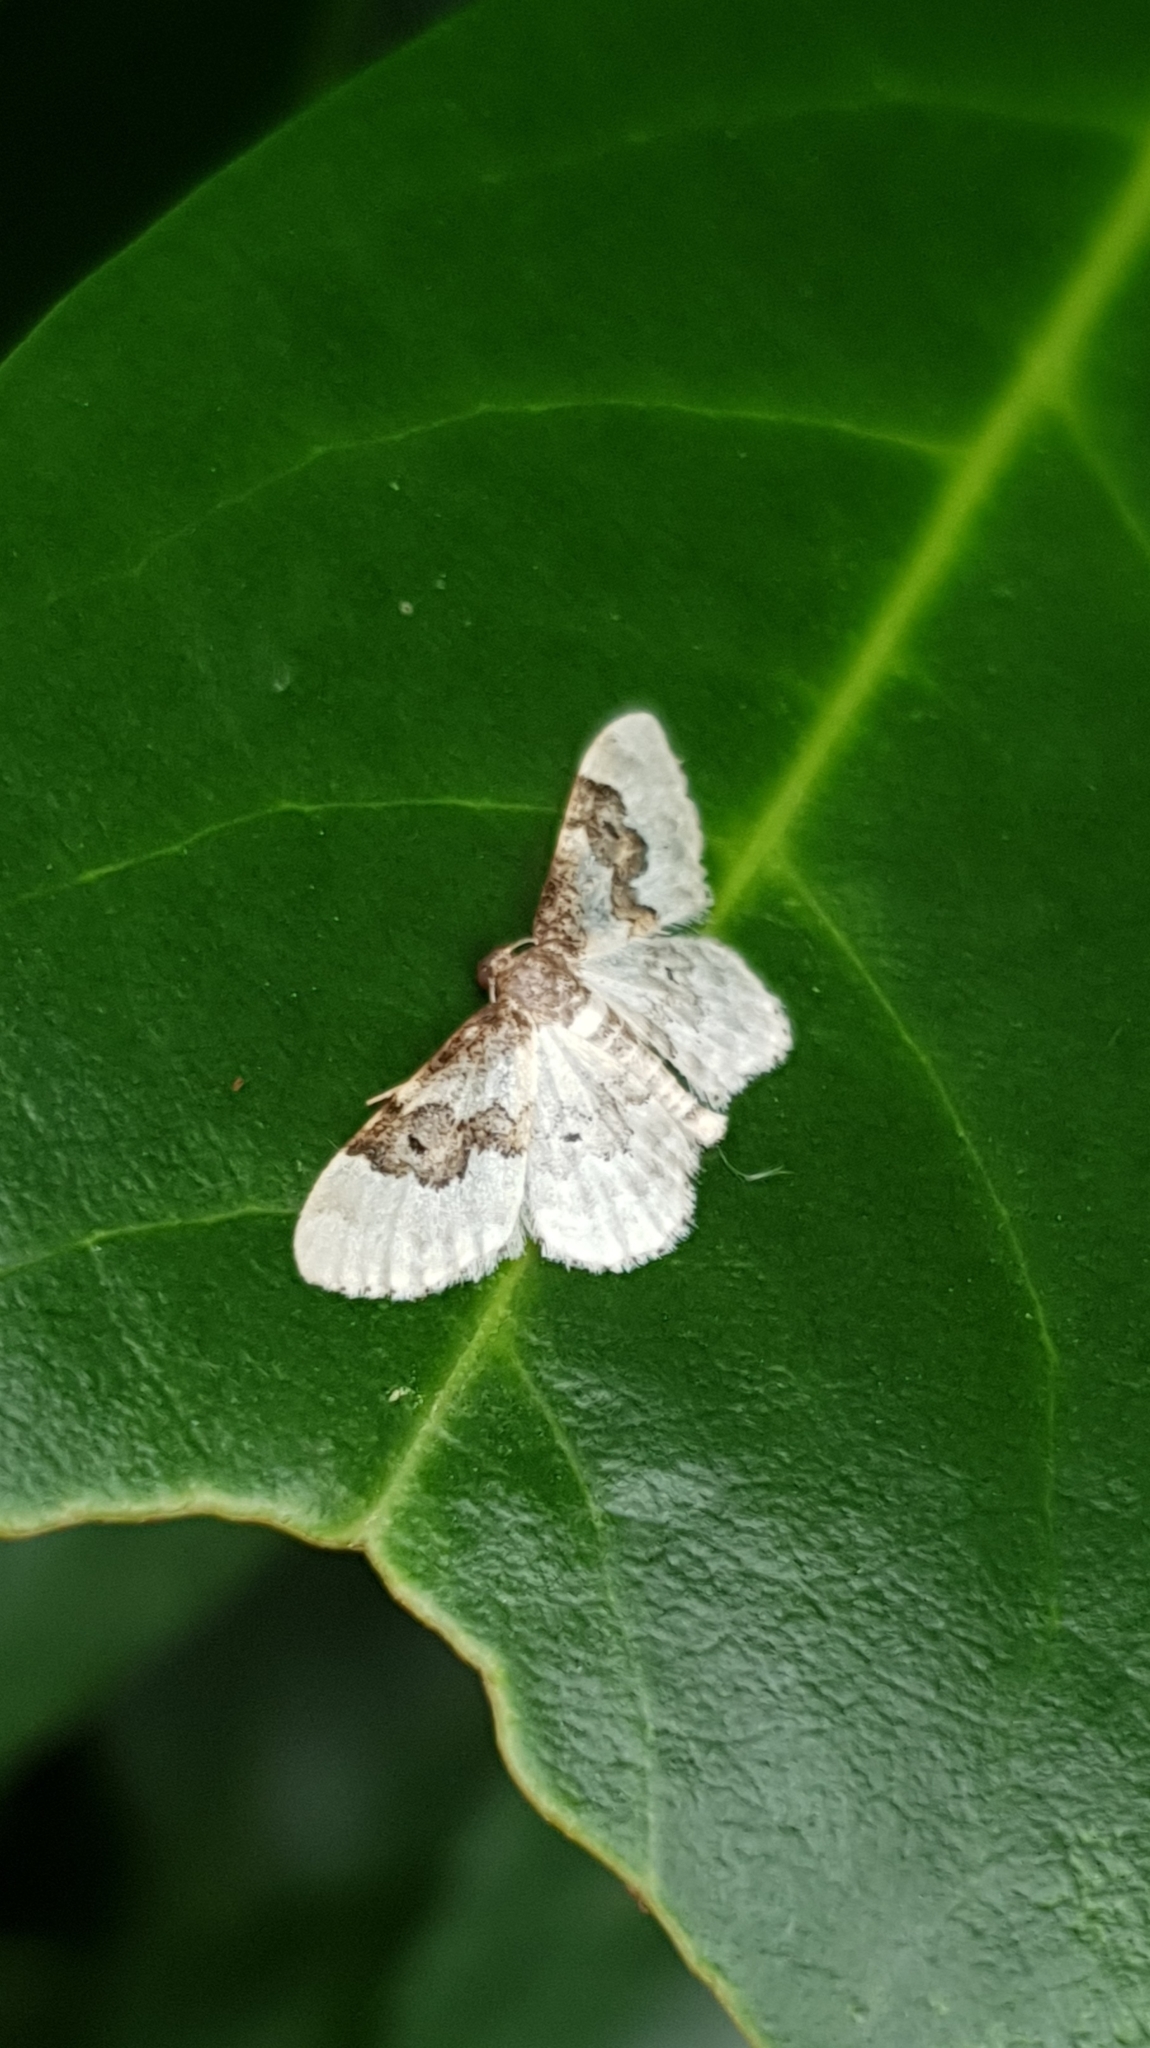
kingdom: Animalia
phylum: Arthropoda
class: Insecta
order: Lepidoptera
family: Geometridae
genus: Idaea
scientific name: Idaea rusticata
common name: Least carpet
